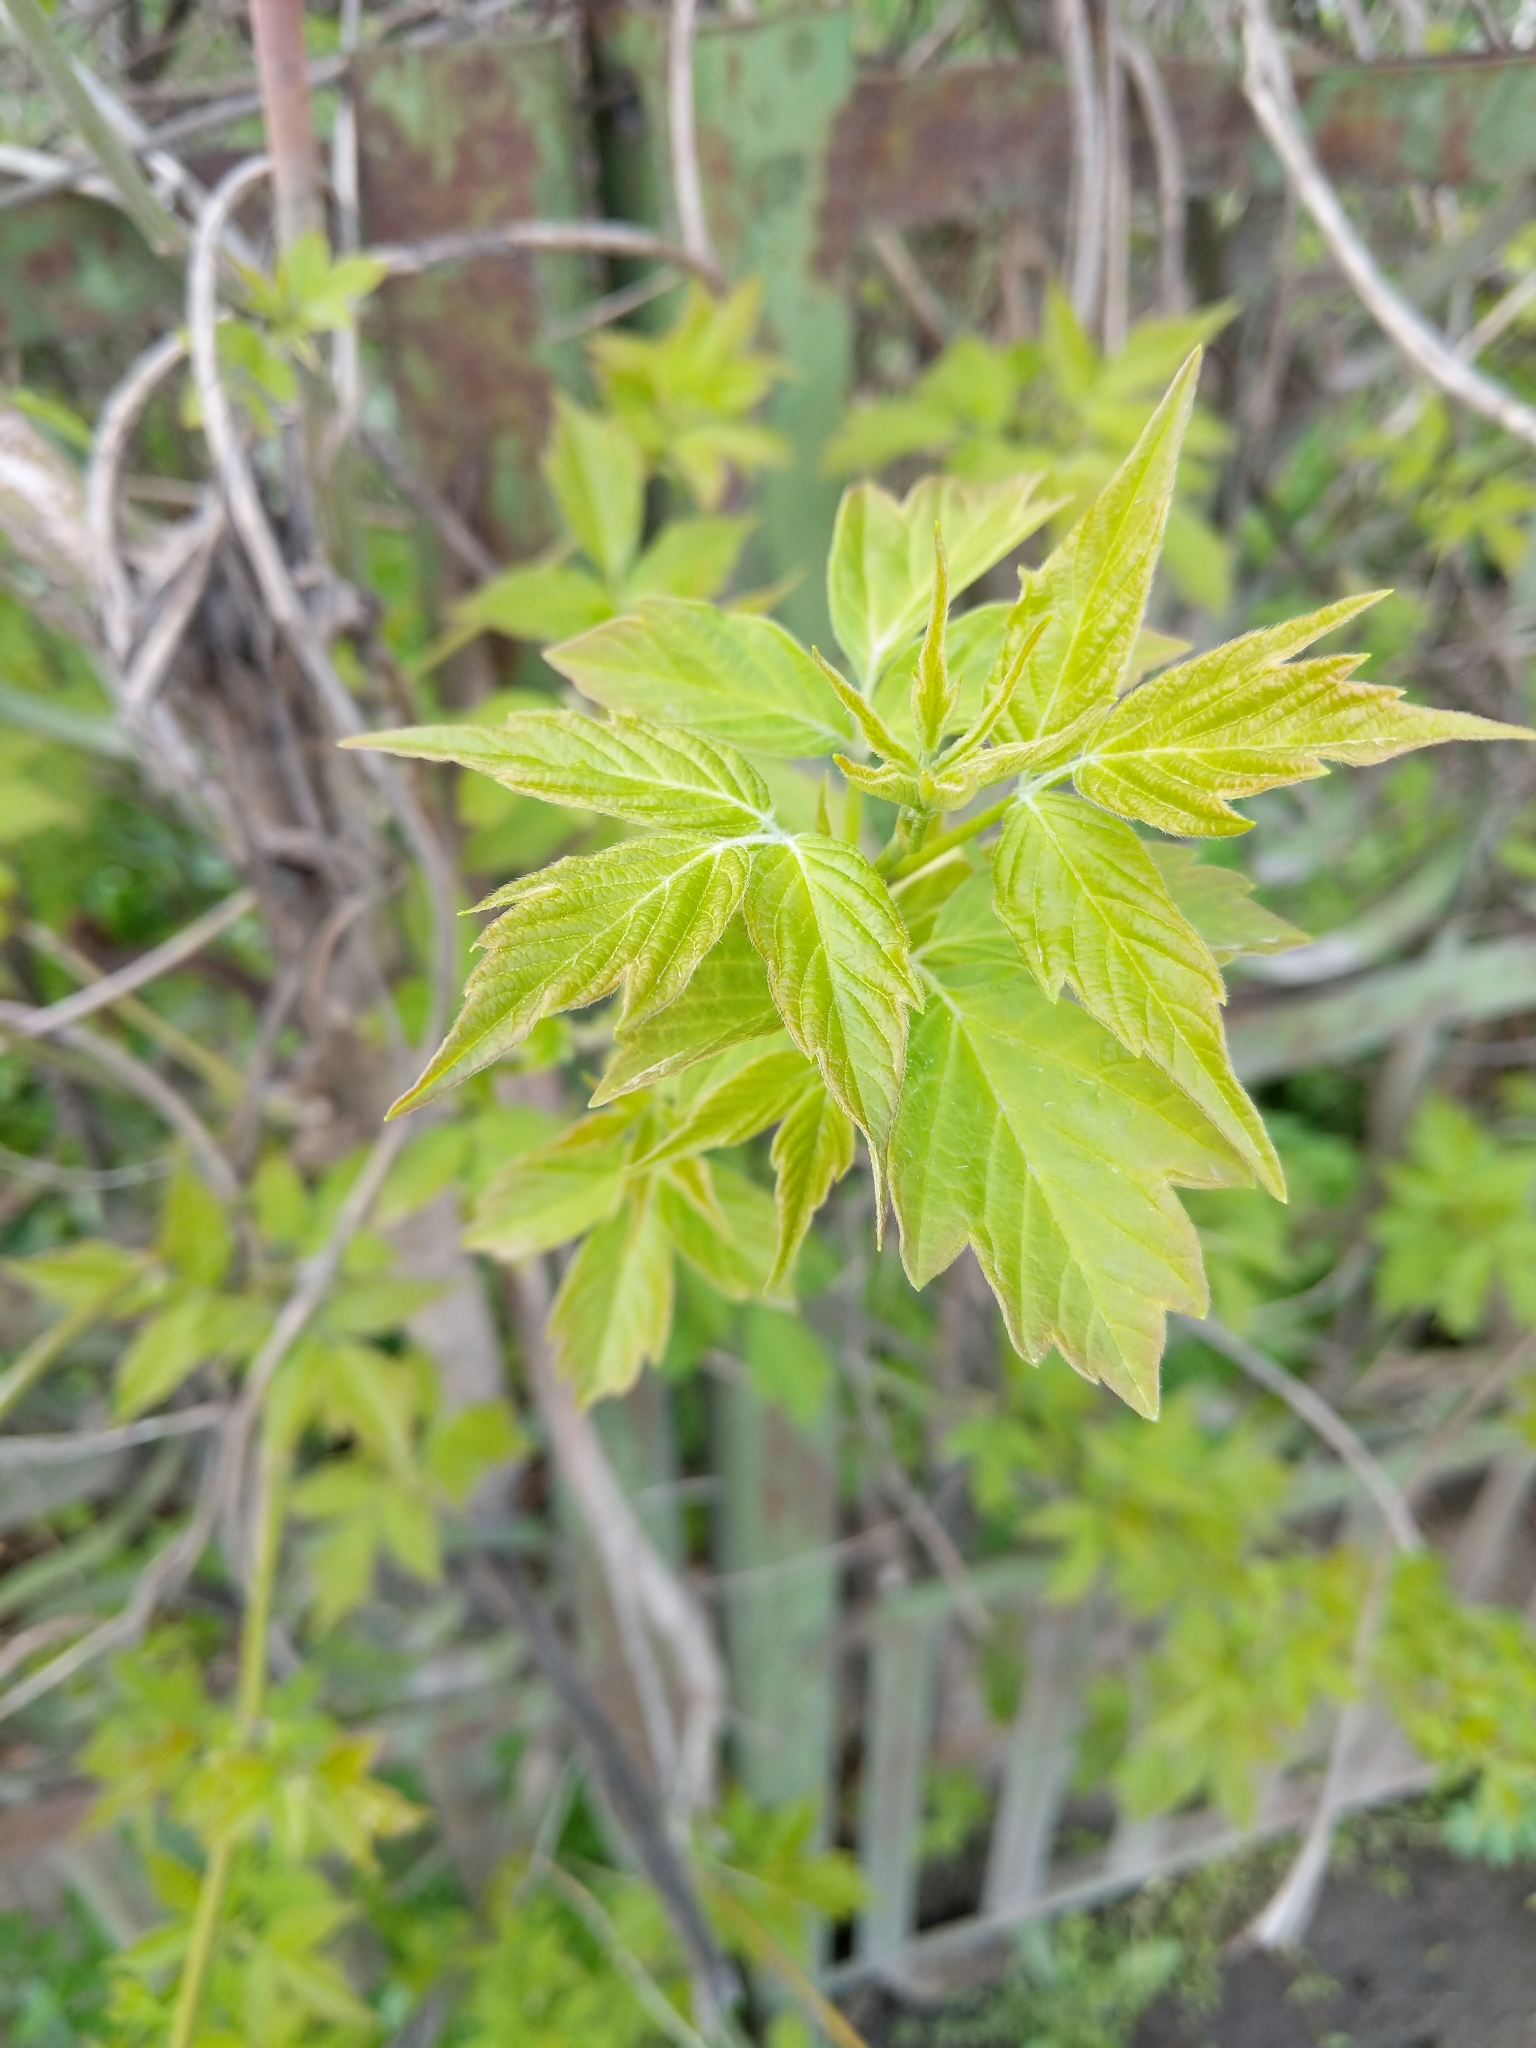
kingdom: Plantae
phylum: Tracheophyta
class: Magnoliopsida
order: Sapindales
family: Sapindaceae
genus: Acer
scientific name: Acer negundo
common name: Ashleaf maple
